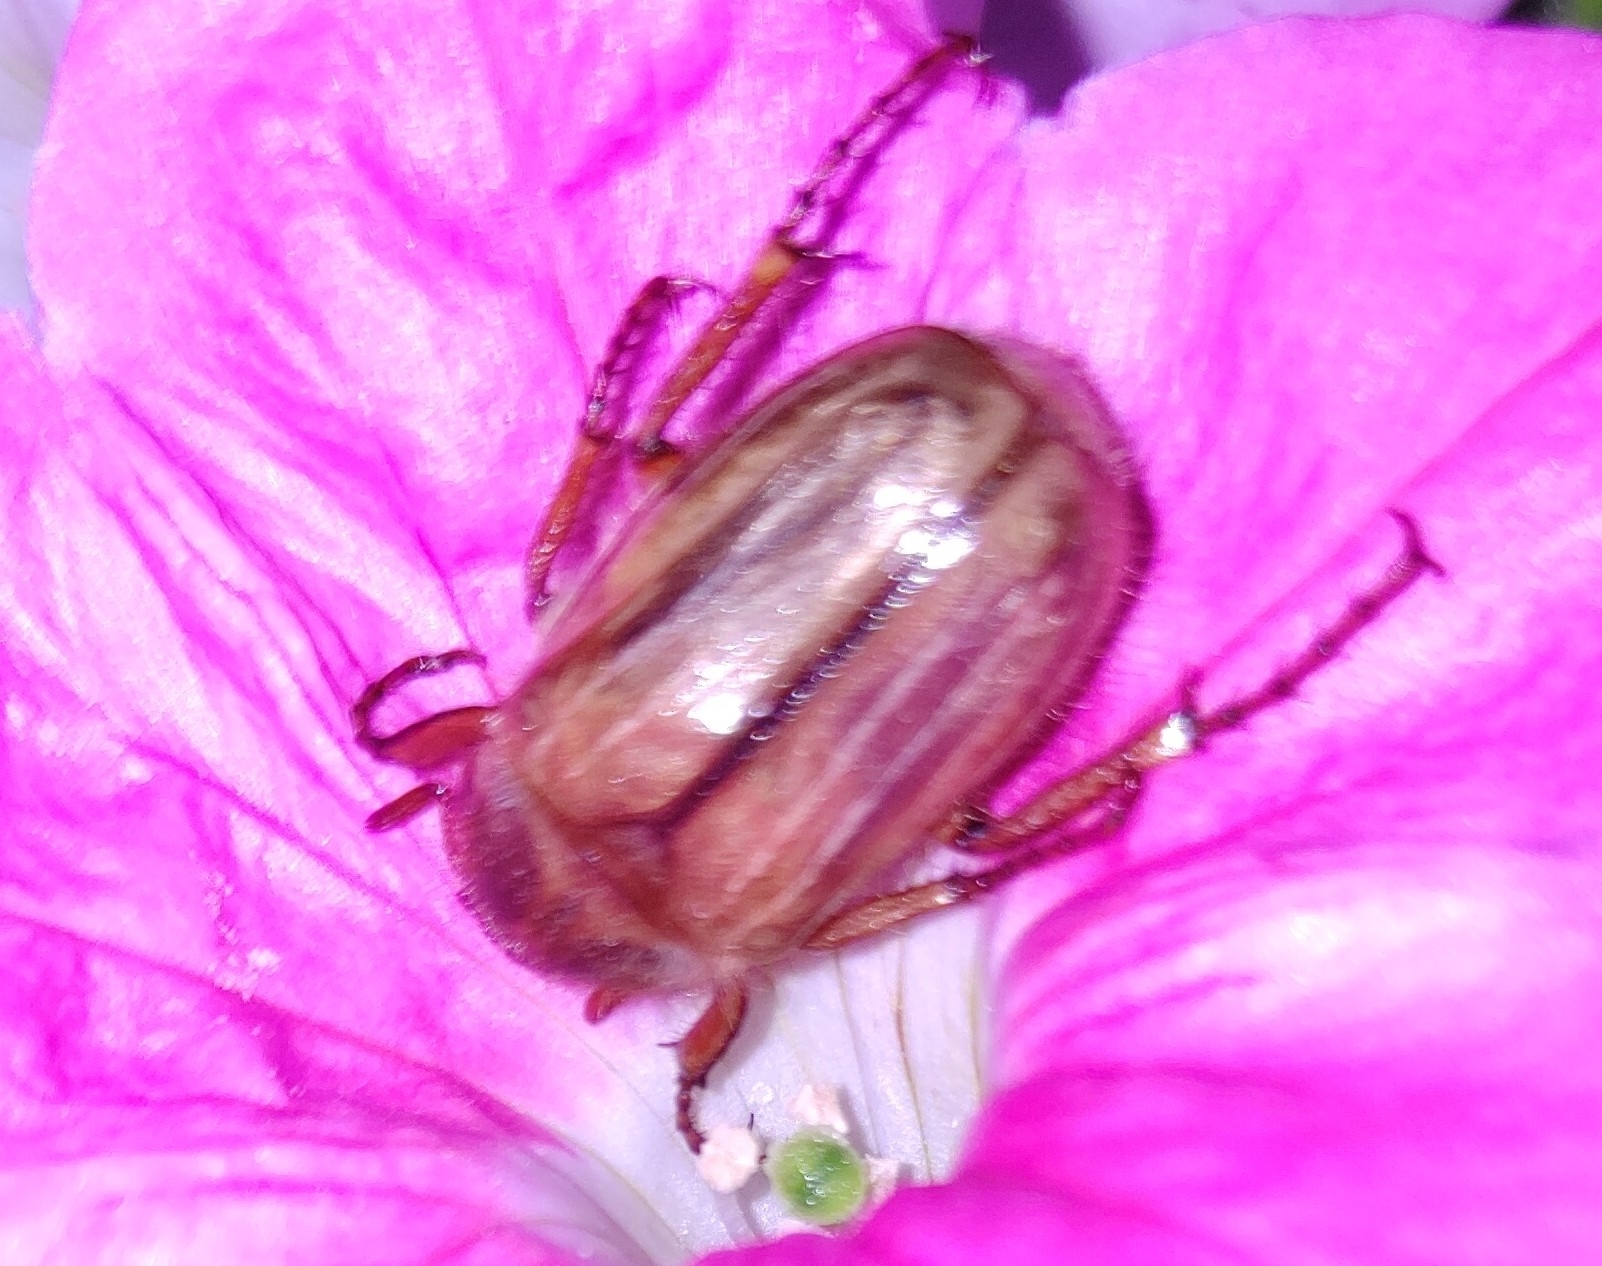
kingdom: Animalia
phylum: Arthropoda
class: Insecta
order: Coleoptera
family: Scarabaeidae
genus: Amphimallon
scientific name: Amphimallon solstitiale
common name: Summer chafer
